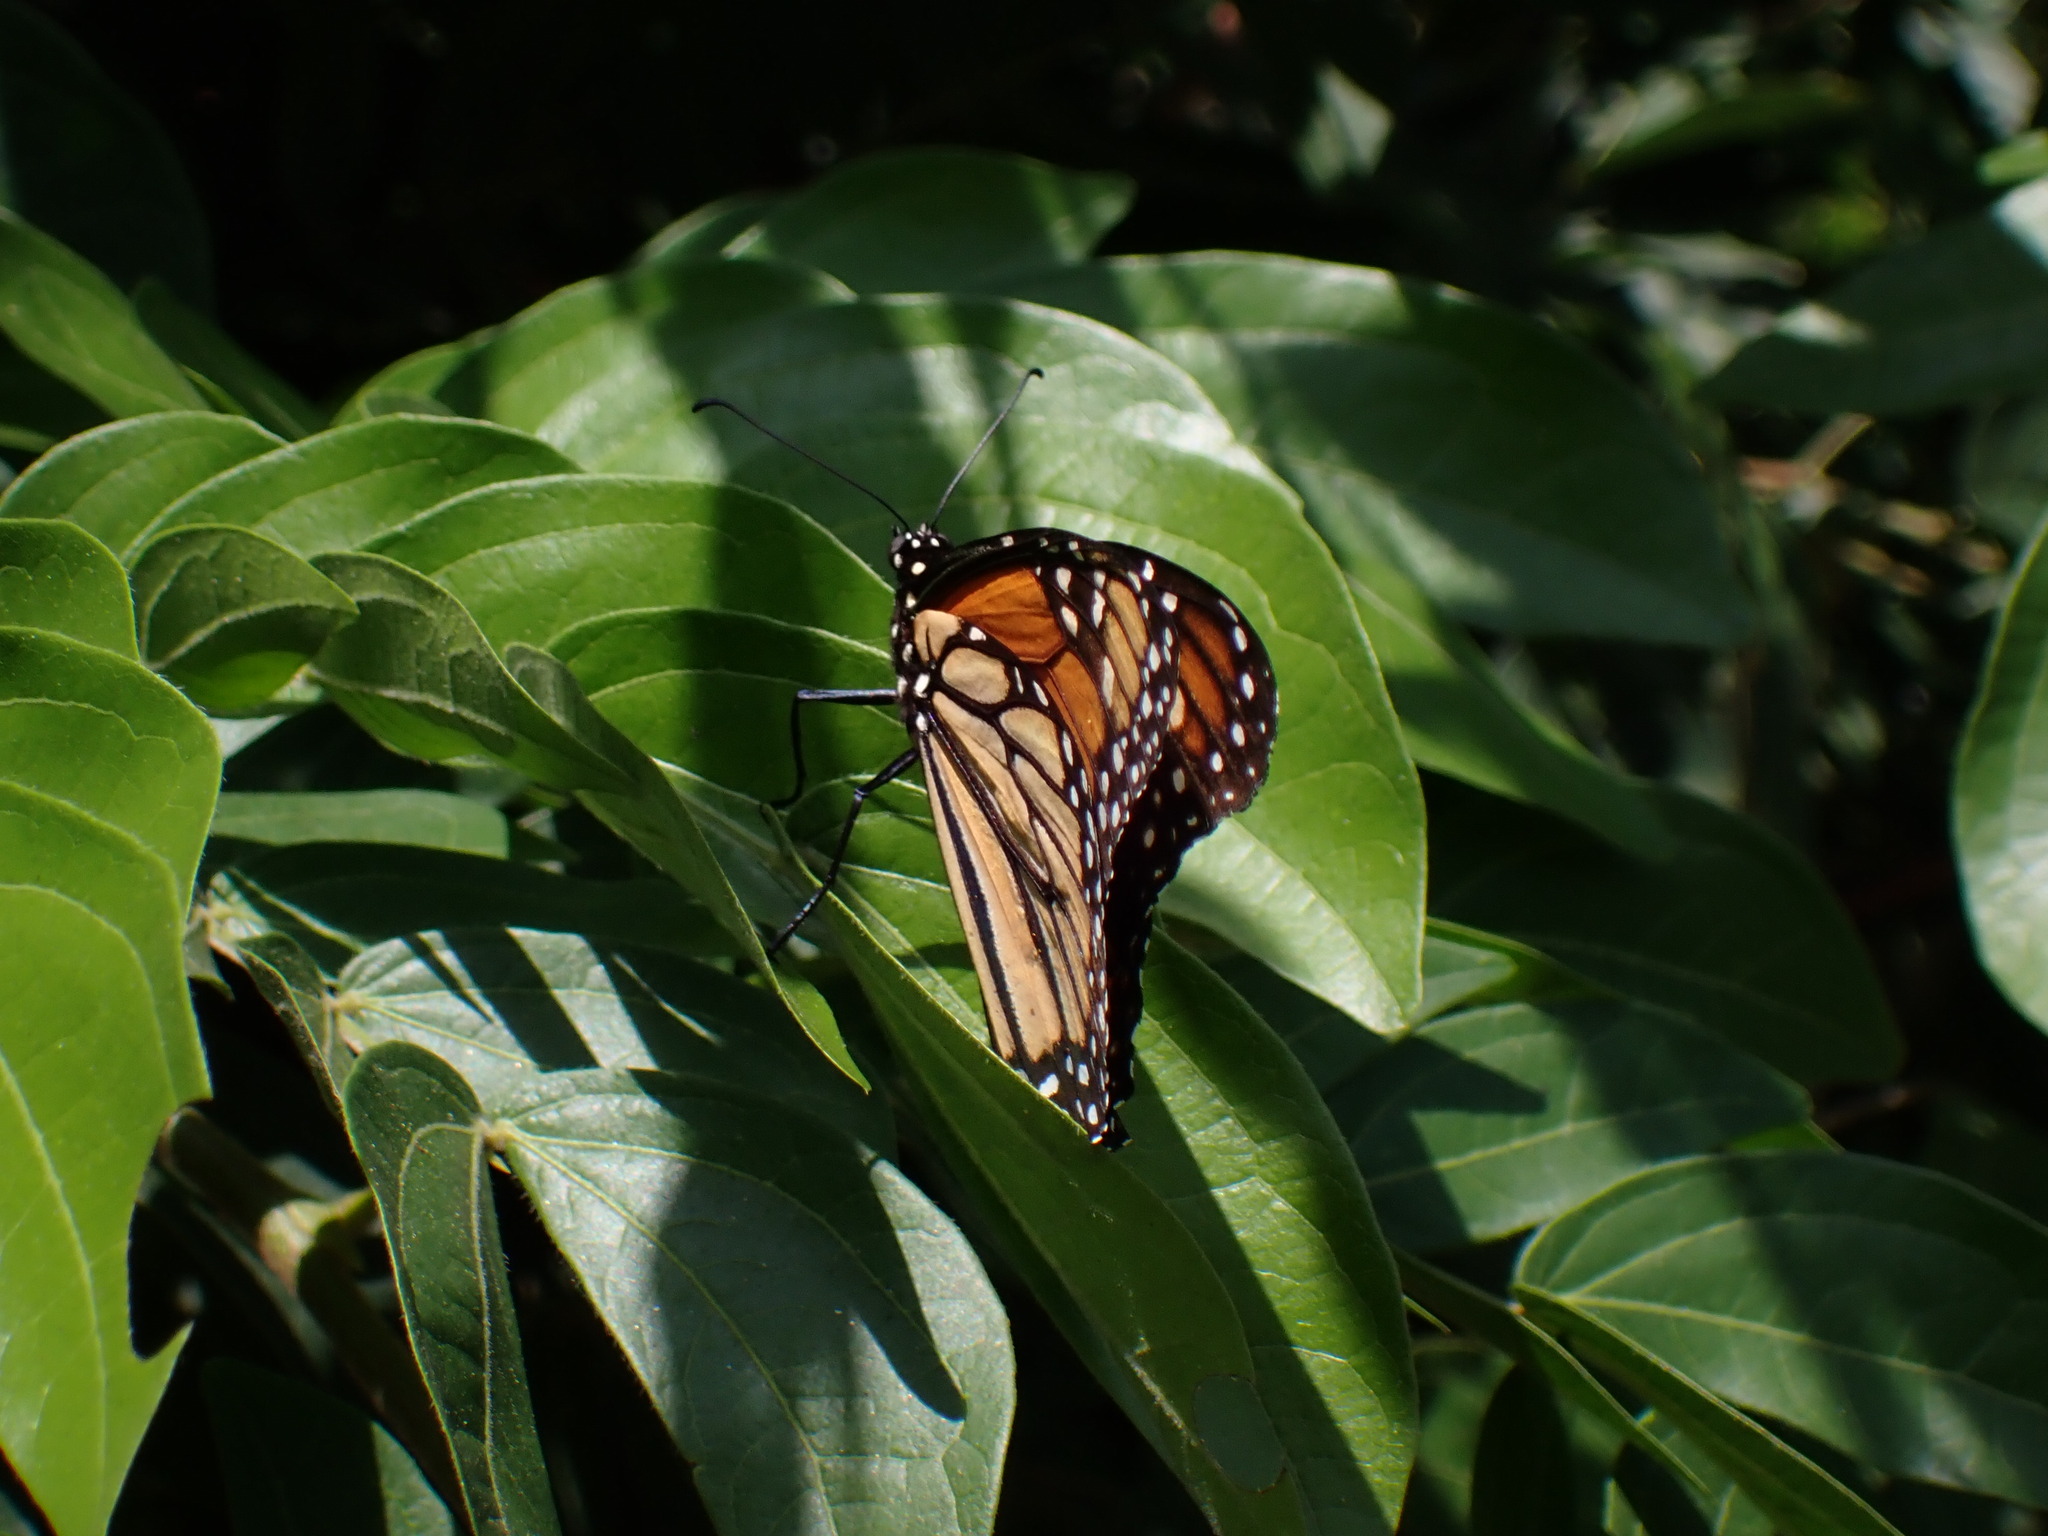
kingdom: Animalia
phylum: Arthropoda
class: Insecta
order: Lepidoptera
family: Nymphalidae
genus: Danaus
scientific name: Danaus plexippus
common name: Monarch
